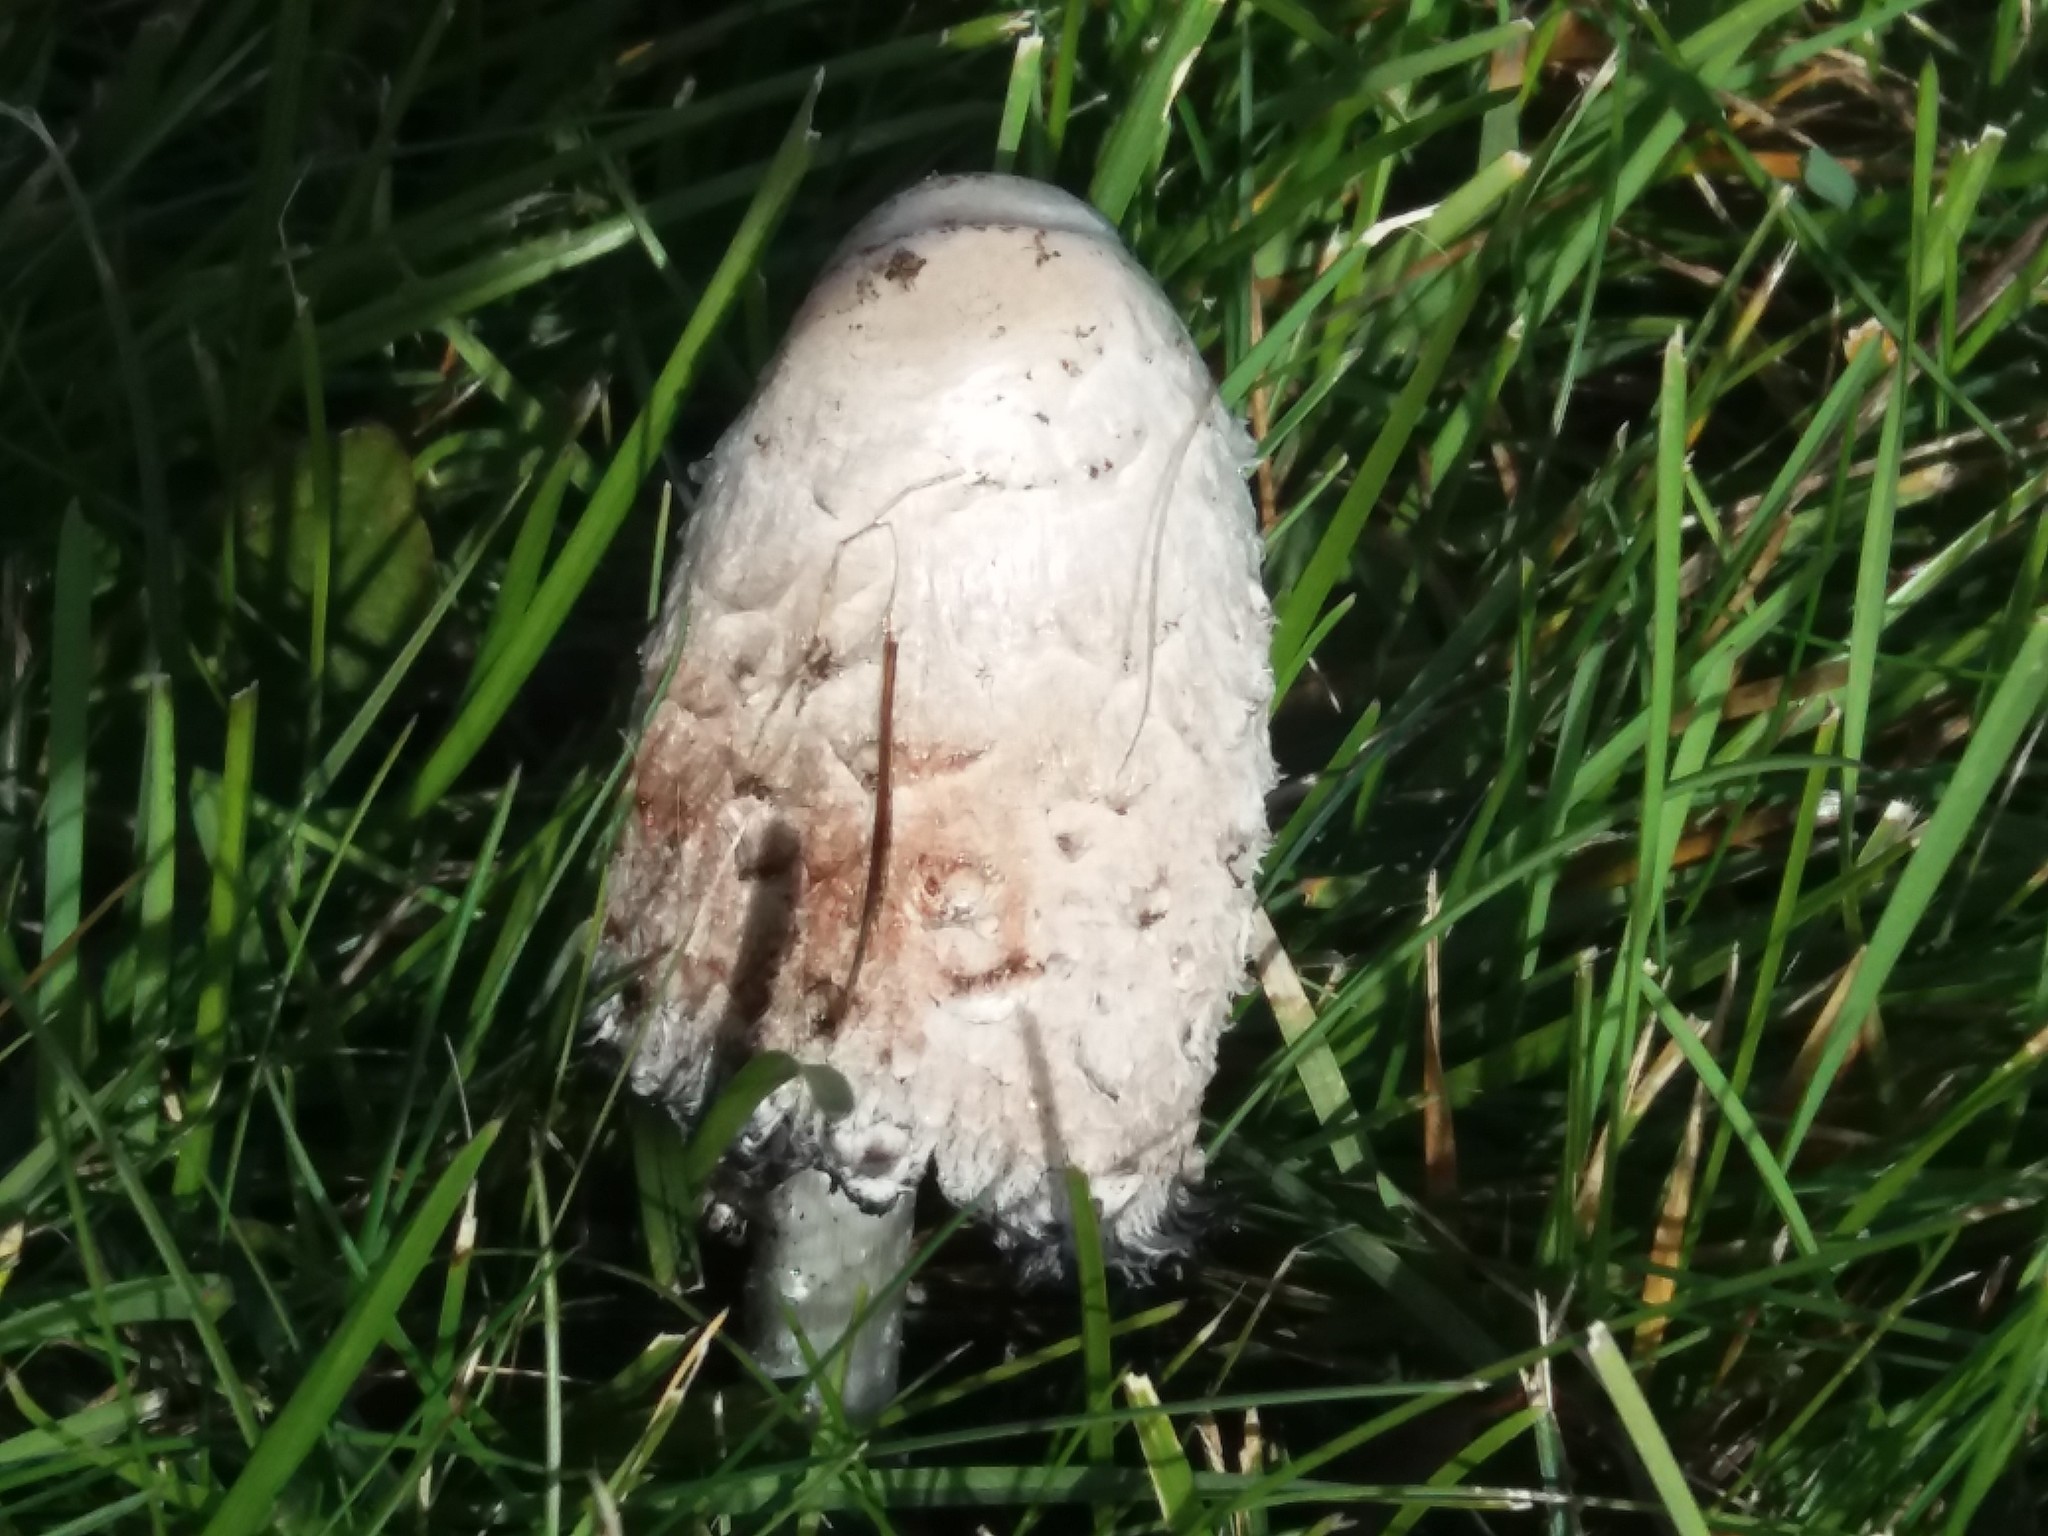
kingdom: Fungi
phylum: Basidiomycota
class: Agaricomycetes
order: Agaricales
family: Agaricaceae
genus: Coprinus
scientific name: Coprinus comatus
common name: Lawyer's wig
